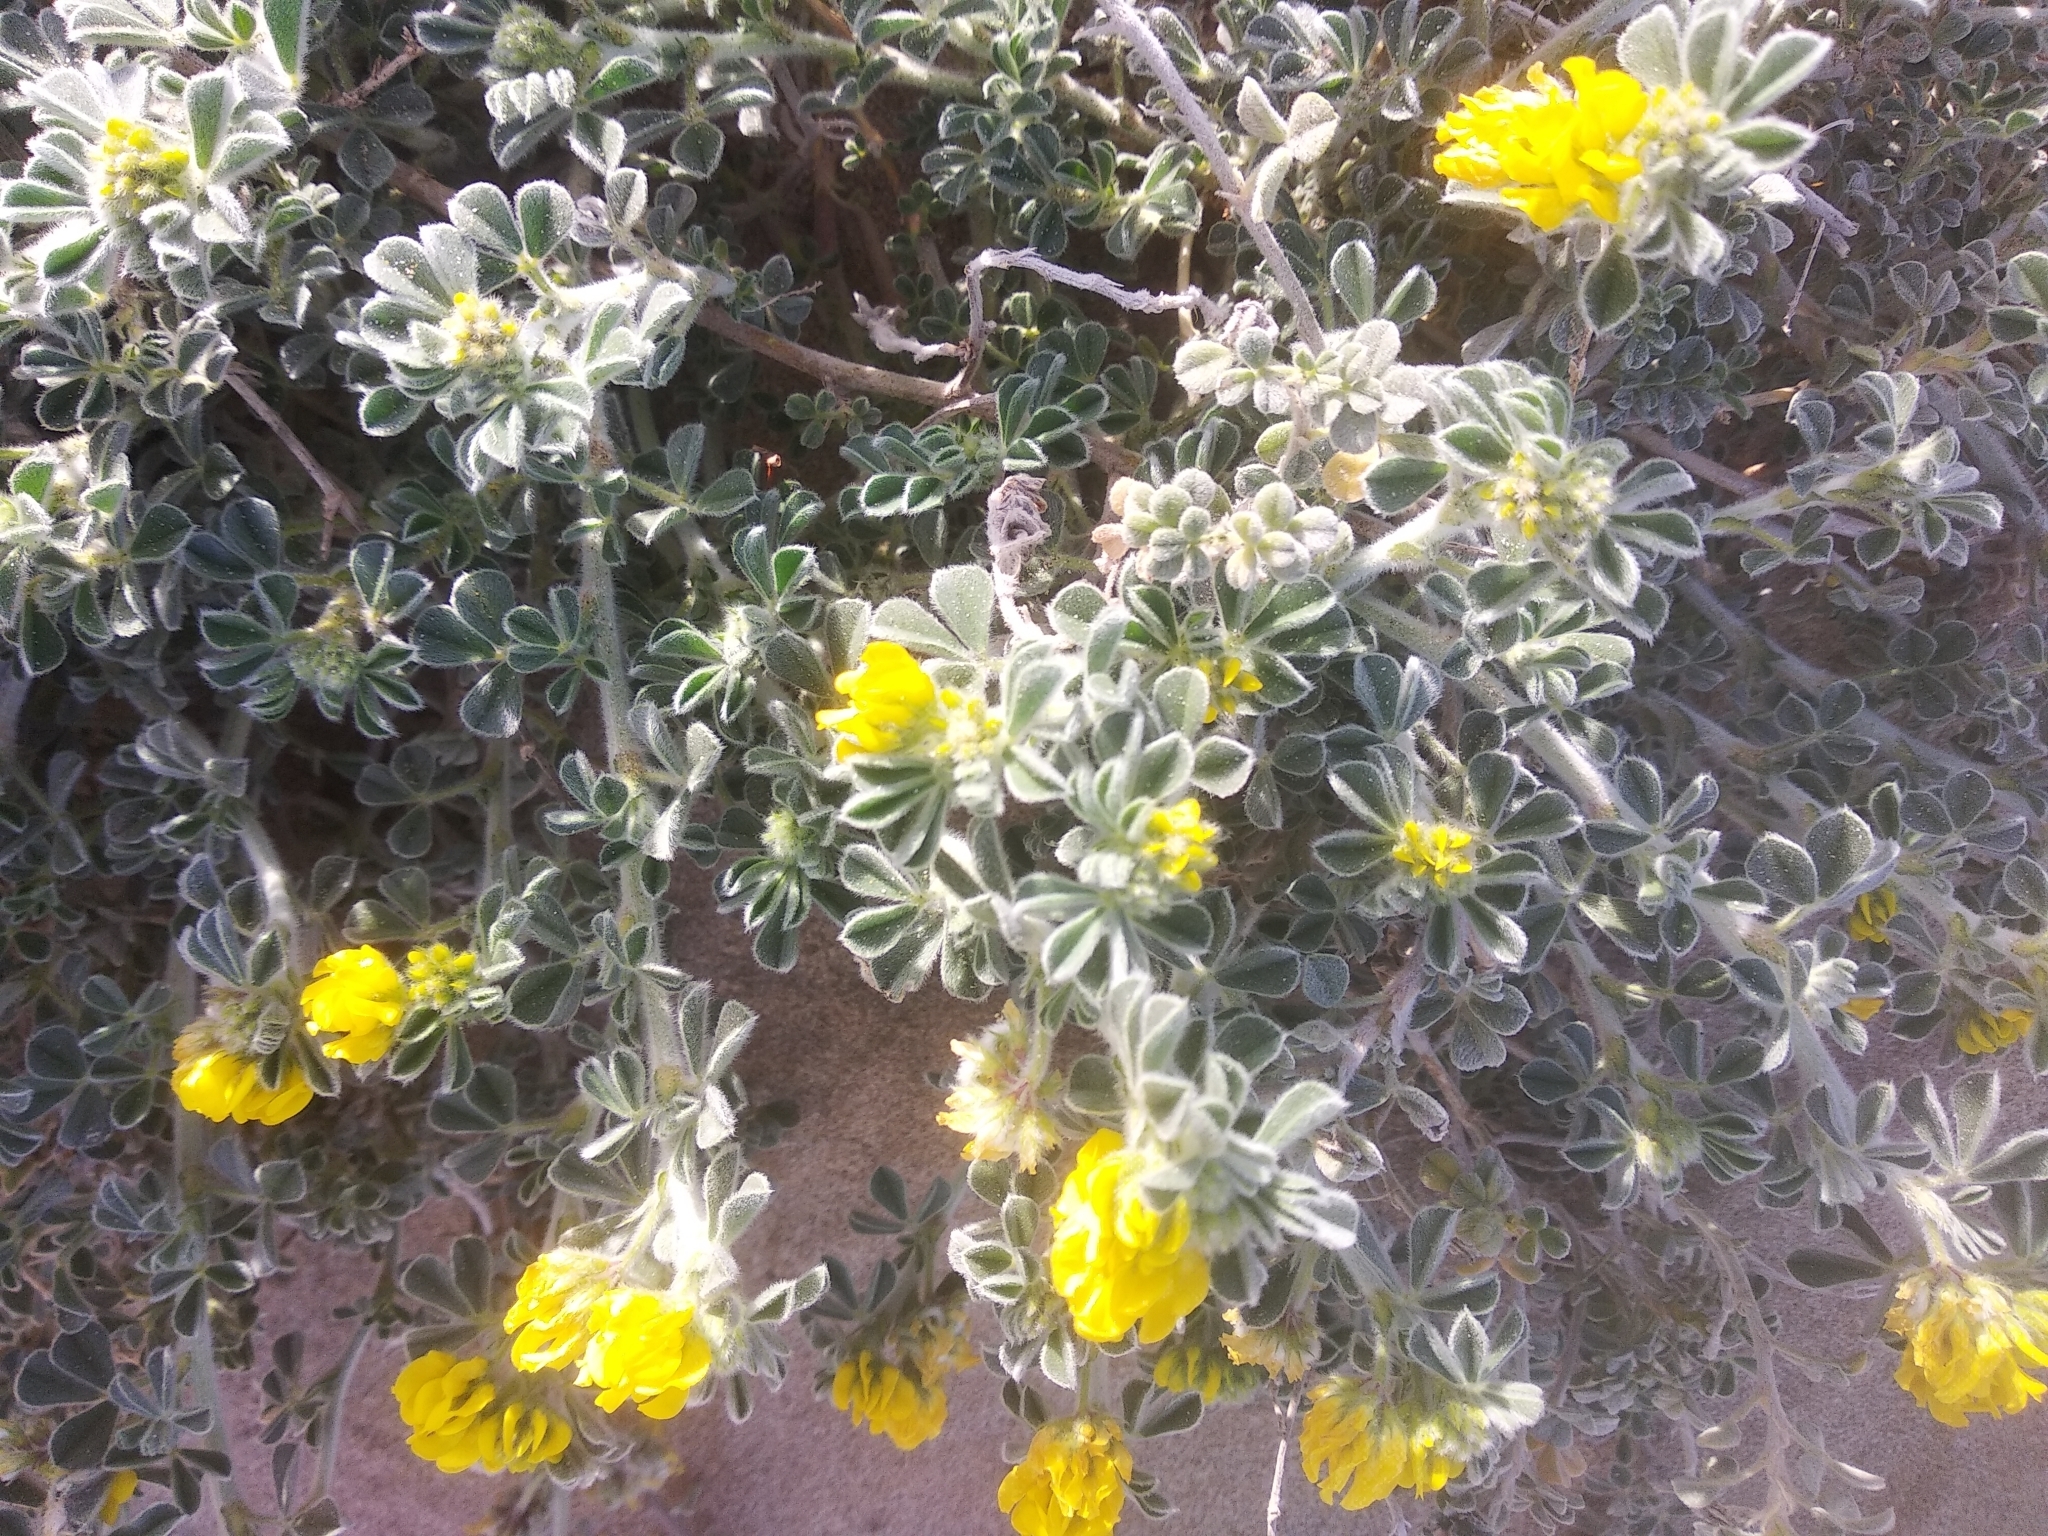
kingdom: Plantae
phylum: Tracheophyta
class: Magnoliopsida
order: Fabales
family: Fabaceae
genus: Medicago
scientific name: Medicago marina
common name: Sea medick
